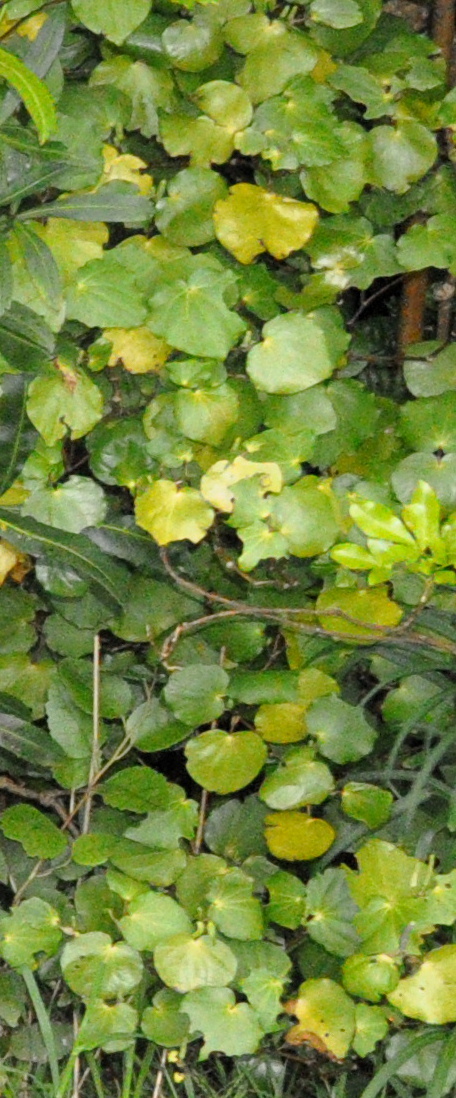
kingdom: Plantae
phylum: Tracheophyta
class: Magnoliopsida
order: Piperales
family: Piperaceae
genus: Macropiper
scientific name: Macropiper excelsum
